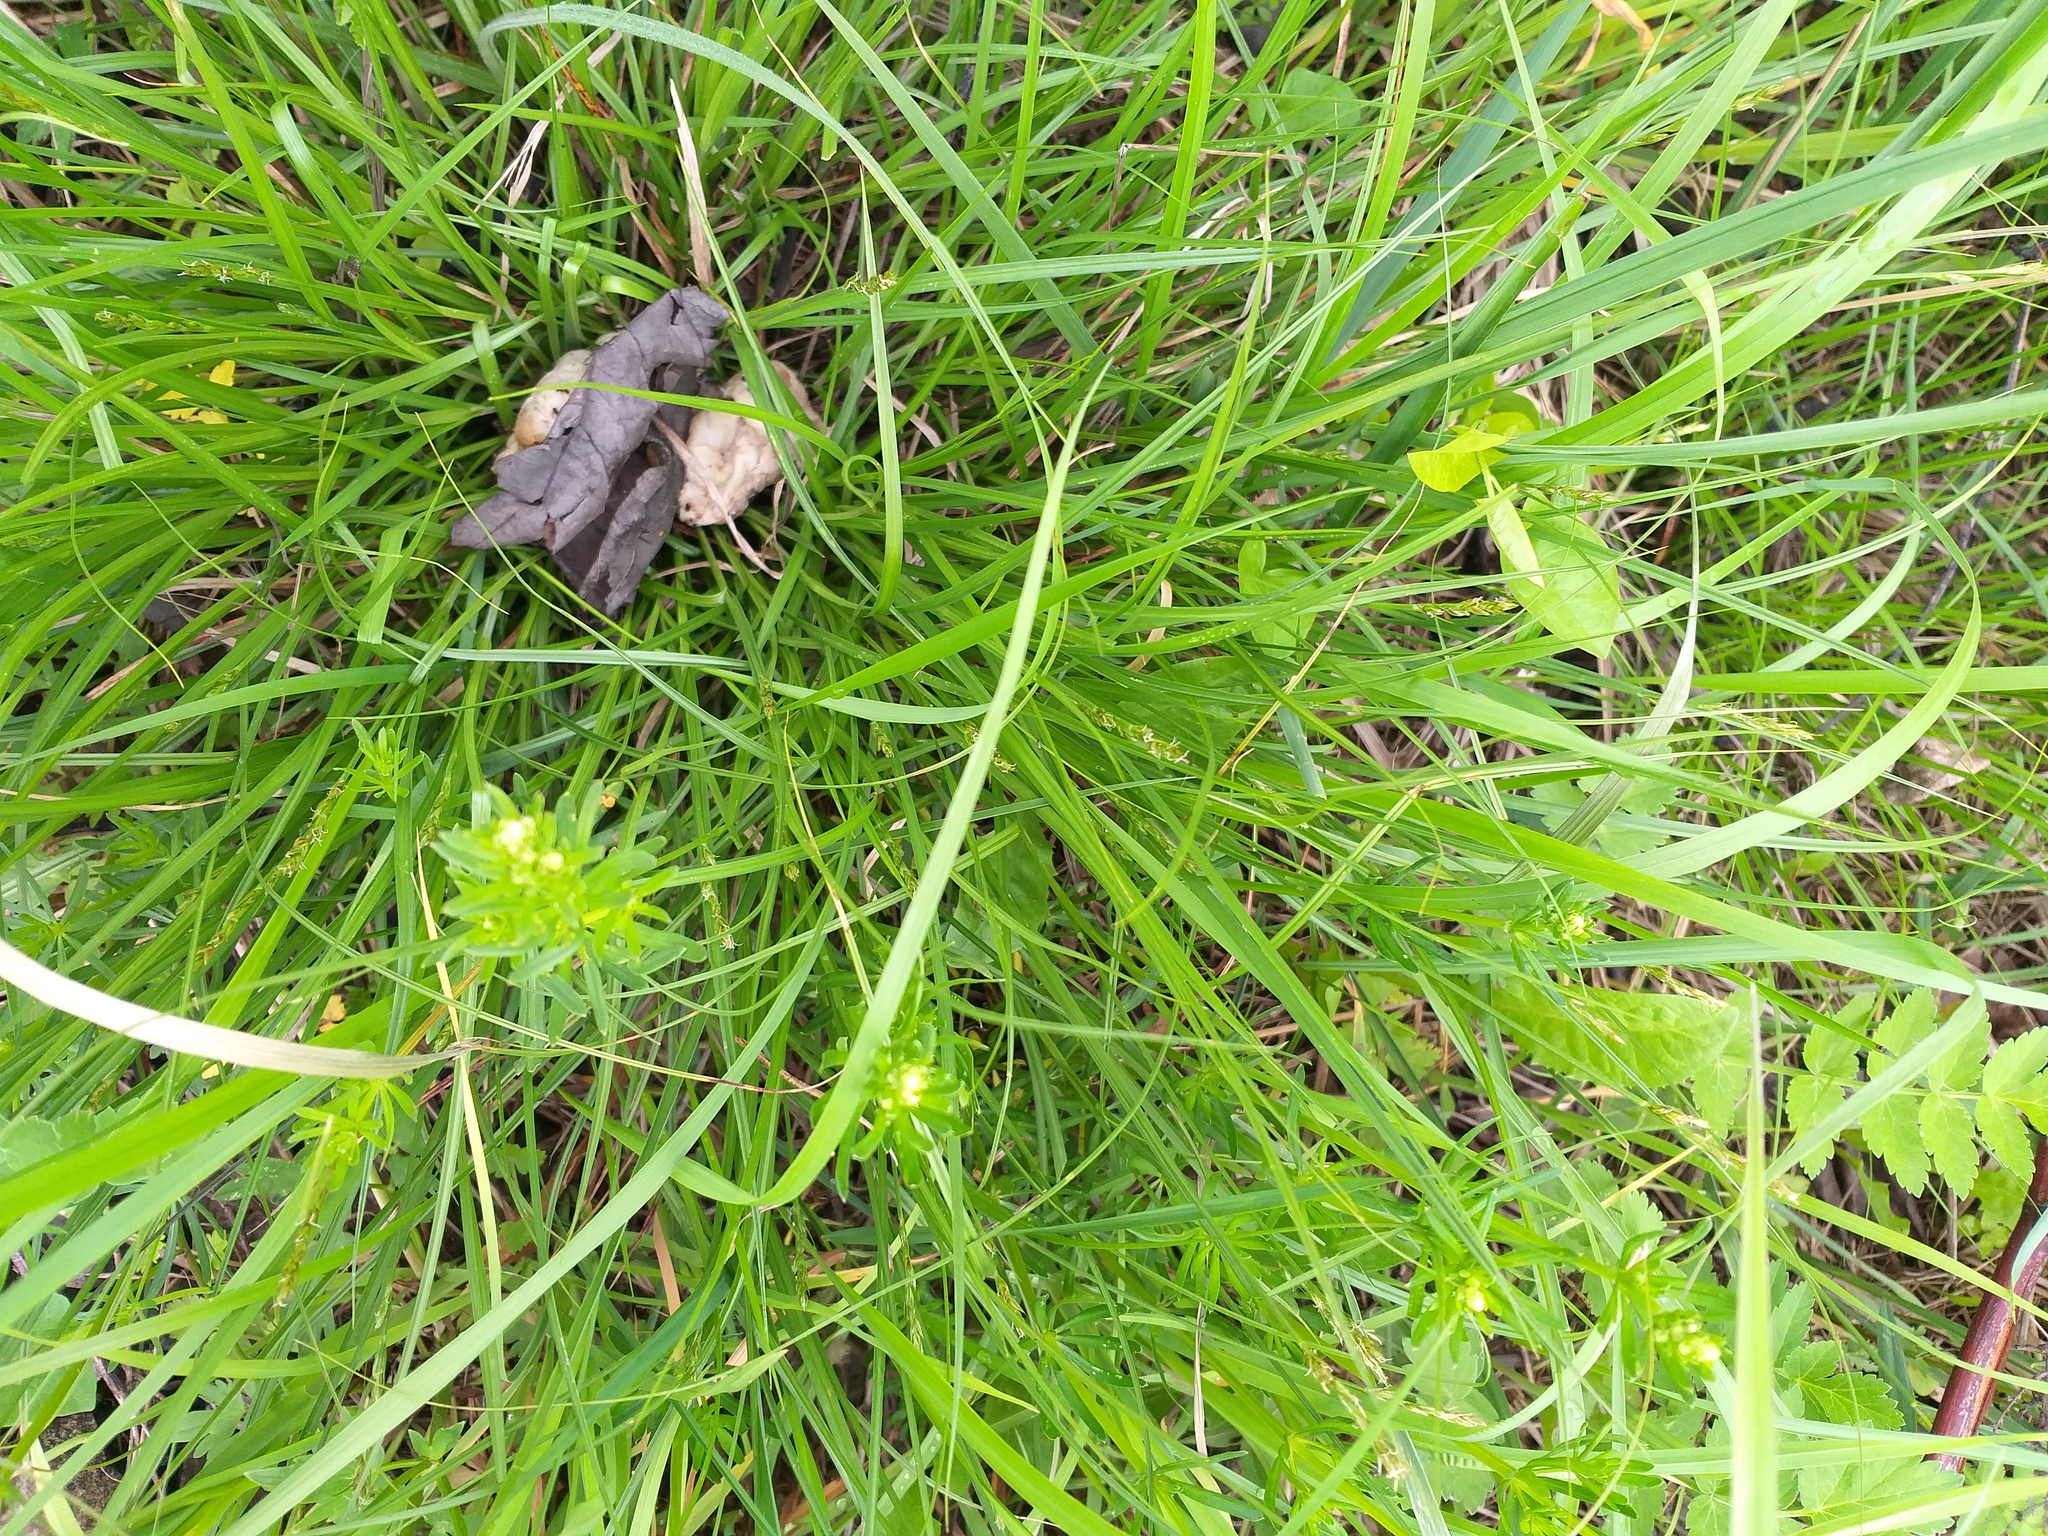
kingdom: Plantae
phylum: Tracheophyta
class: Liliopsida
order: Poales
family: Cyperaceae
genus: Carex
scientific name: Carex spicata
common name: Spiked sedge
